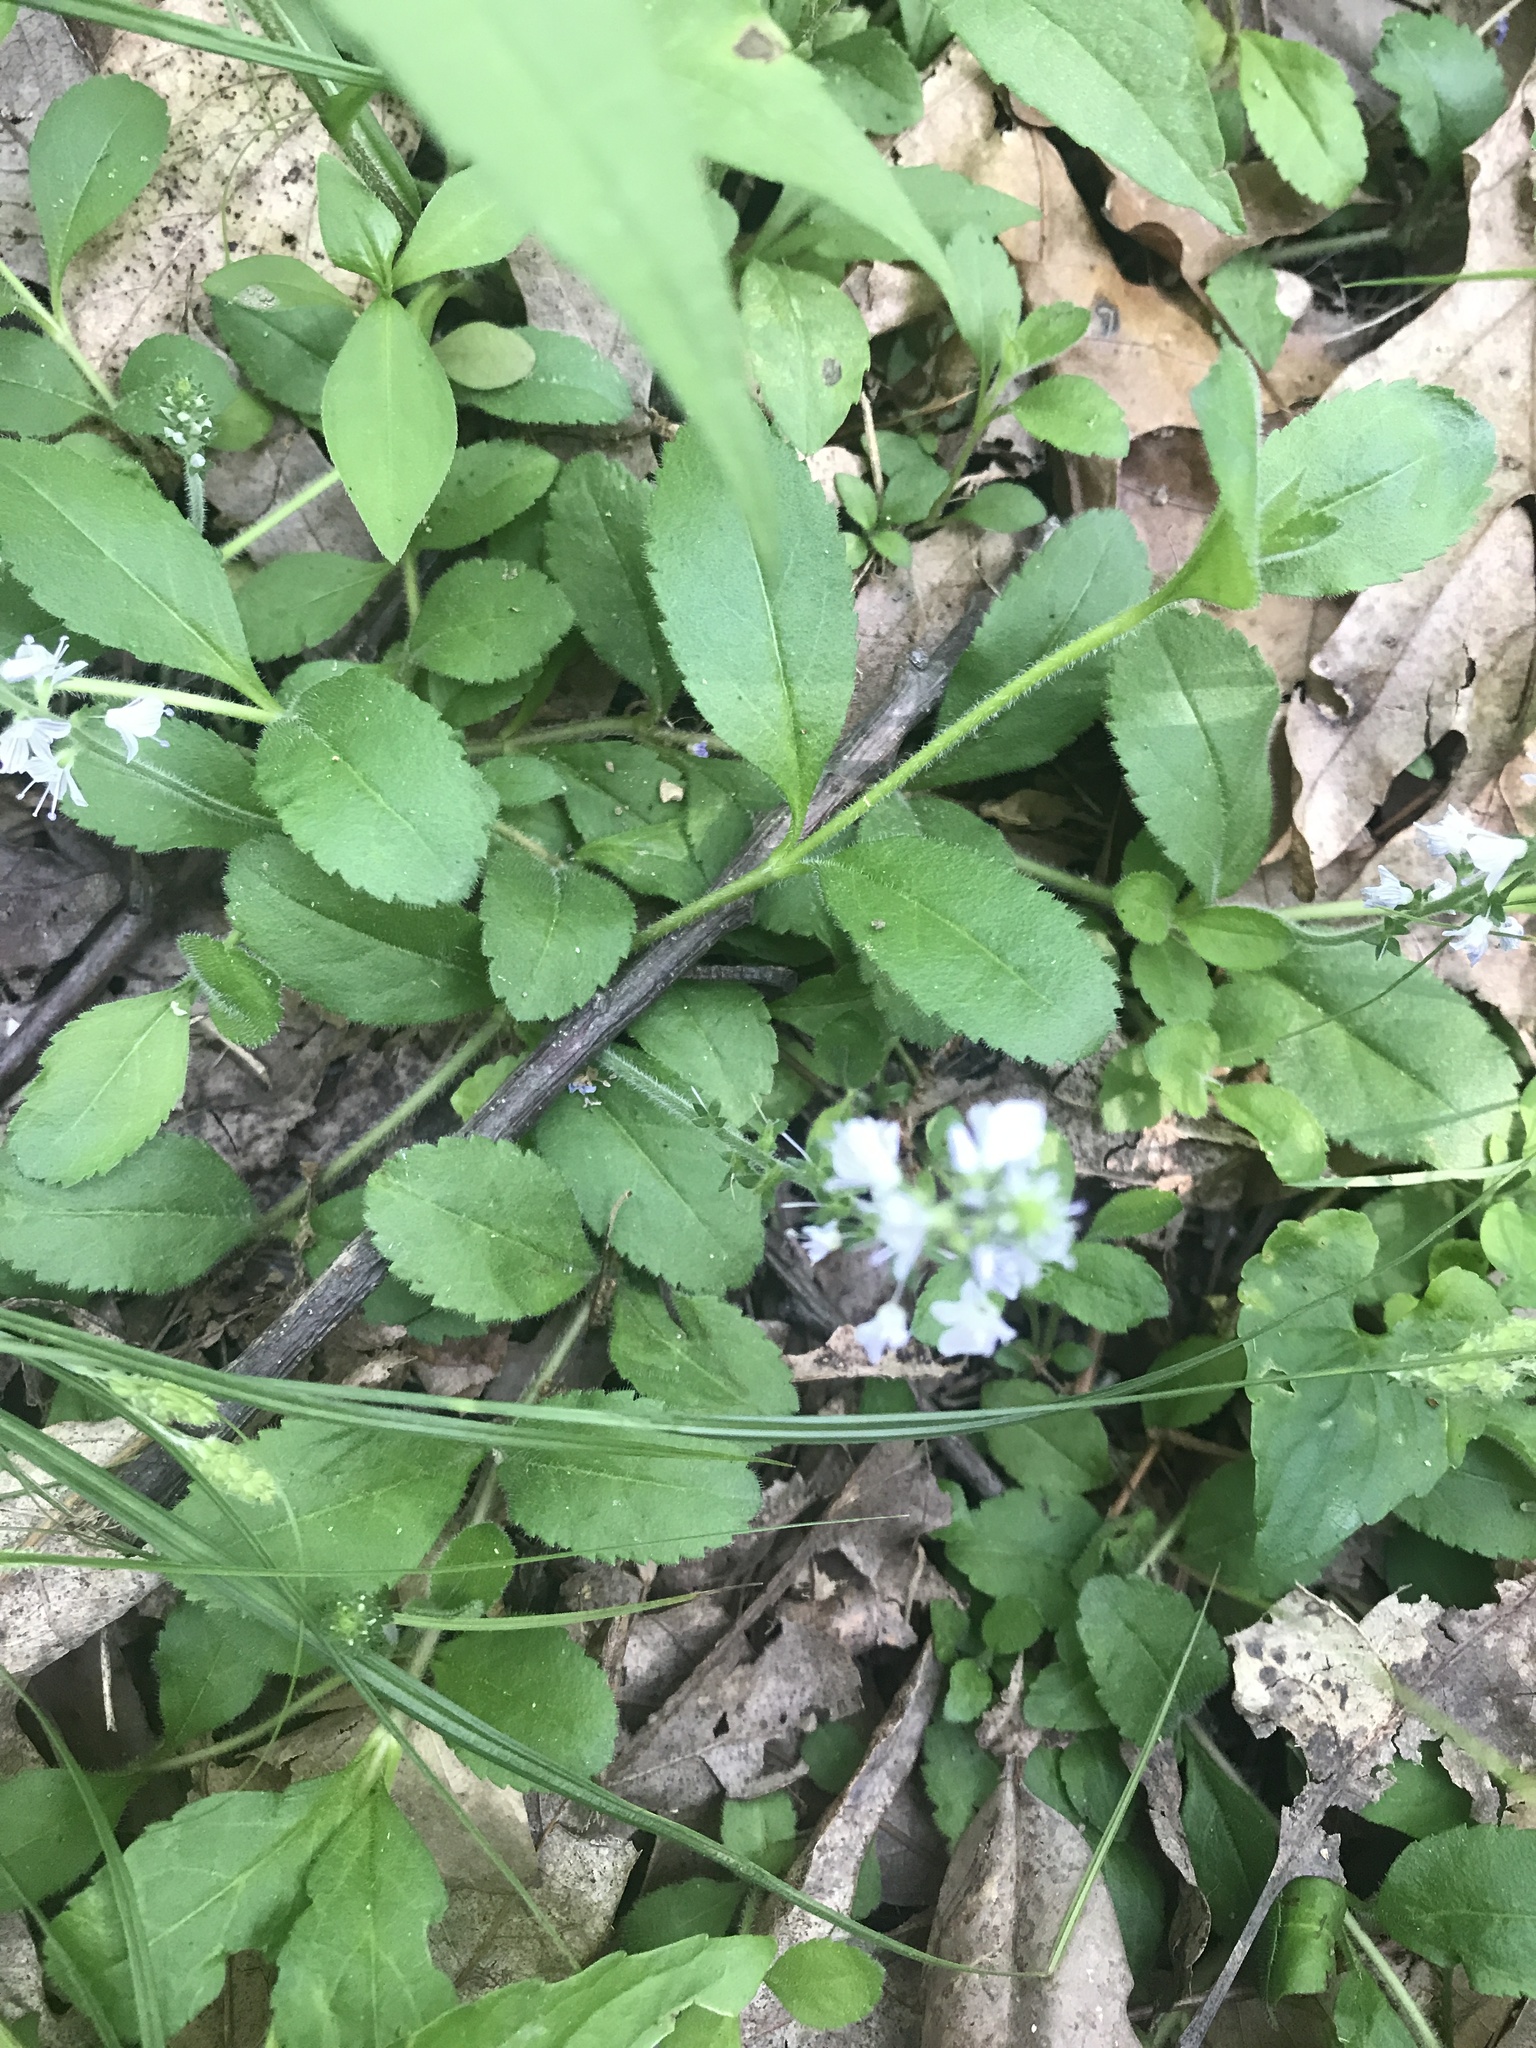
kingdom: Plantae
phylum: Tracheophyta
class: Magnoliopsida
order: Lamiales
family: Plantaginaceae
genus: Veronica
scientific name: Veronica officinalis
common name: Common speedwell
